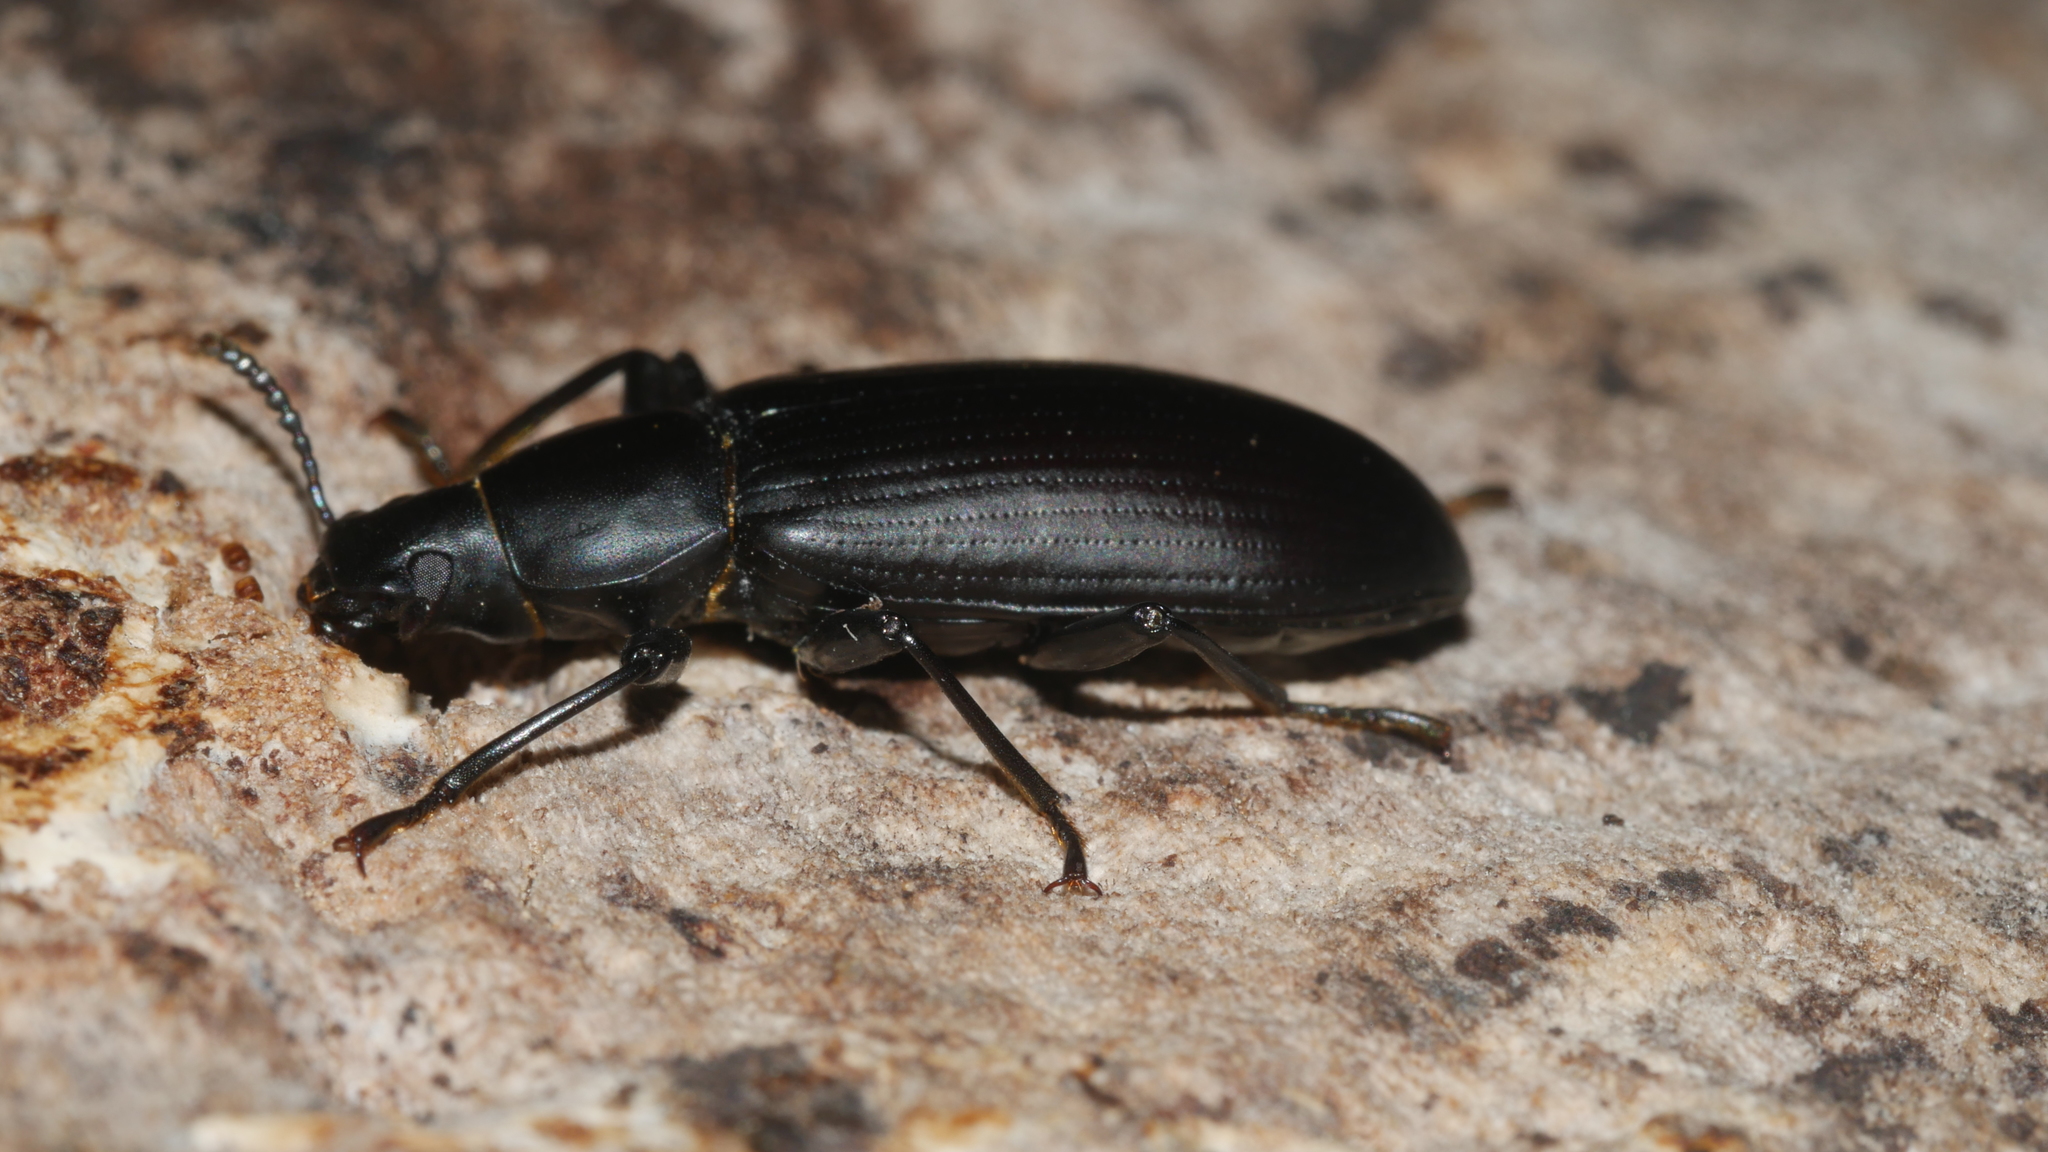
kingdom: Animalia
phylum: Arthropoda
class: Insecta
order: Coleoptera
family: Tenebrionidae
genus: Alobates
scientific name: Alobates
